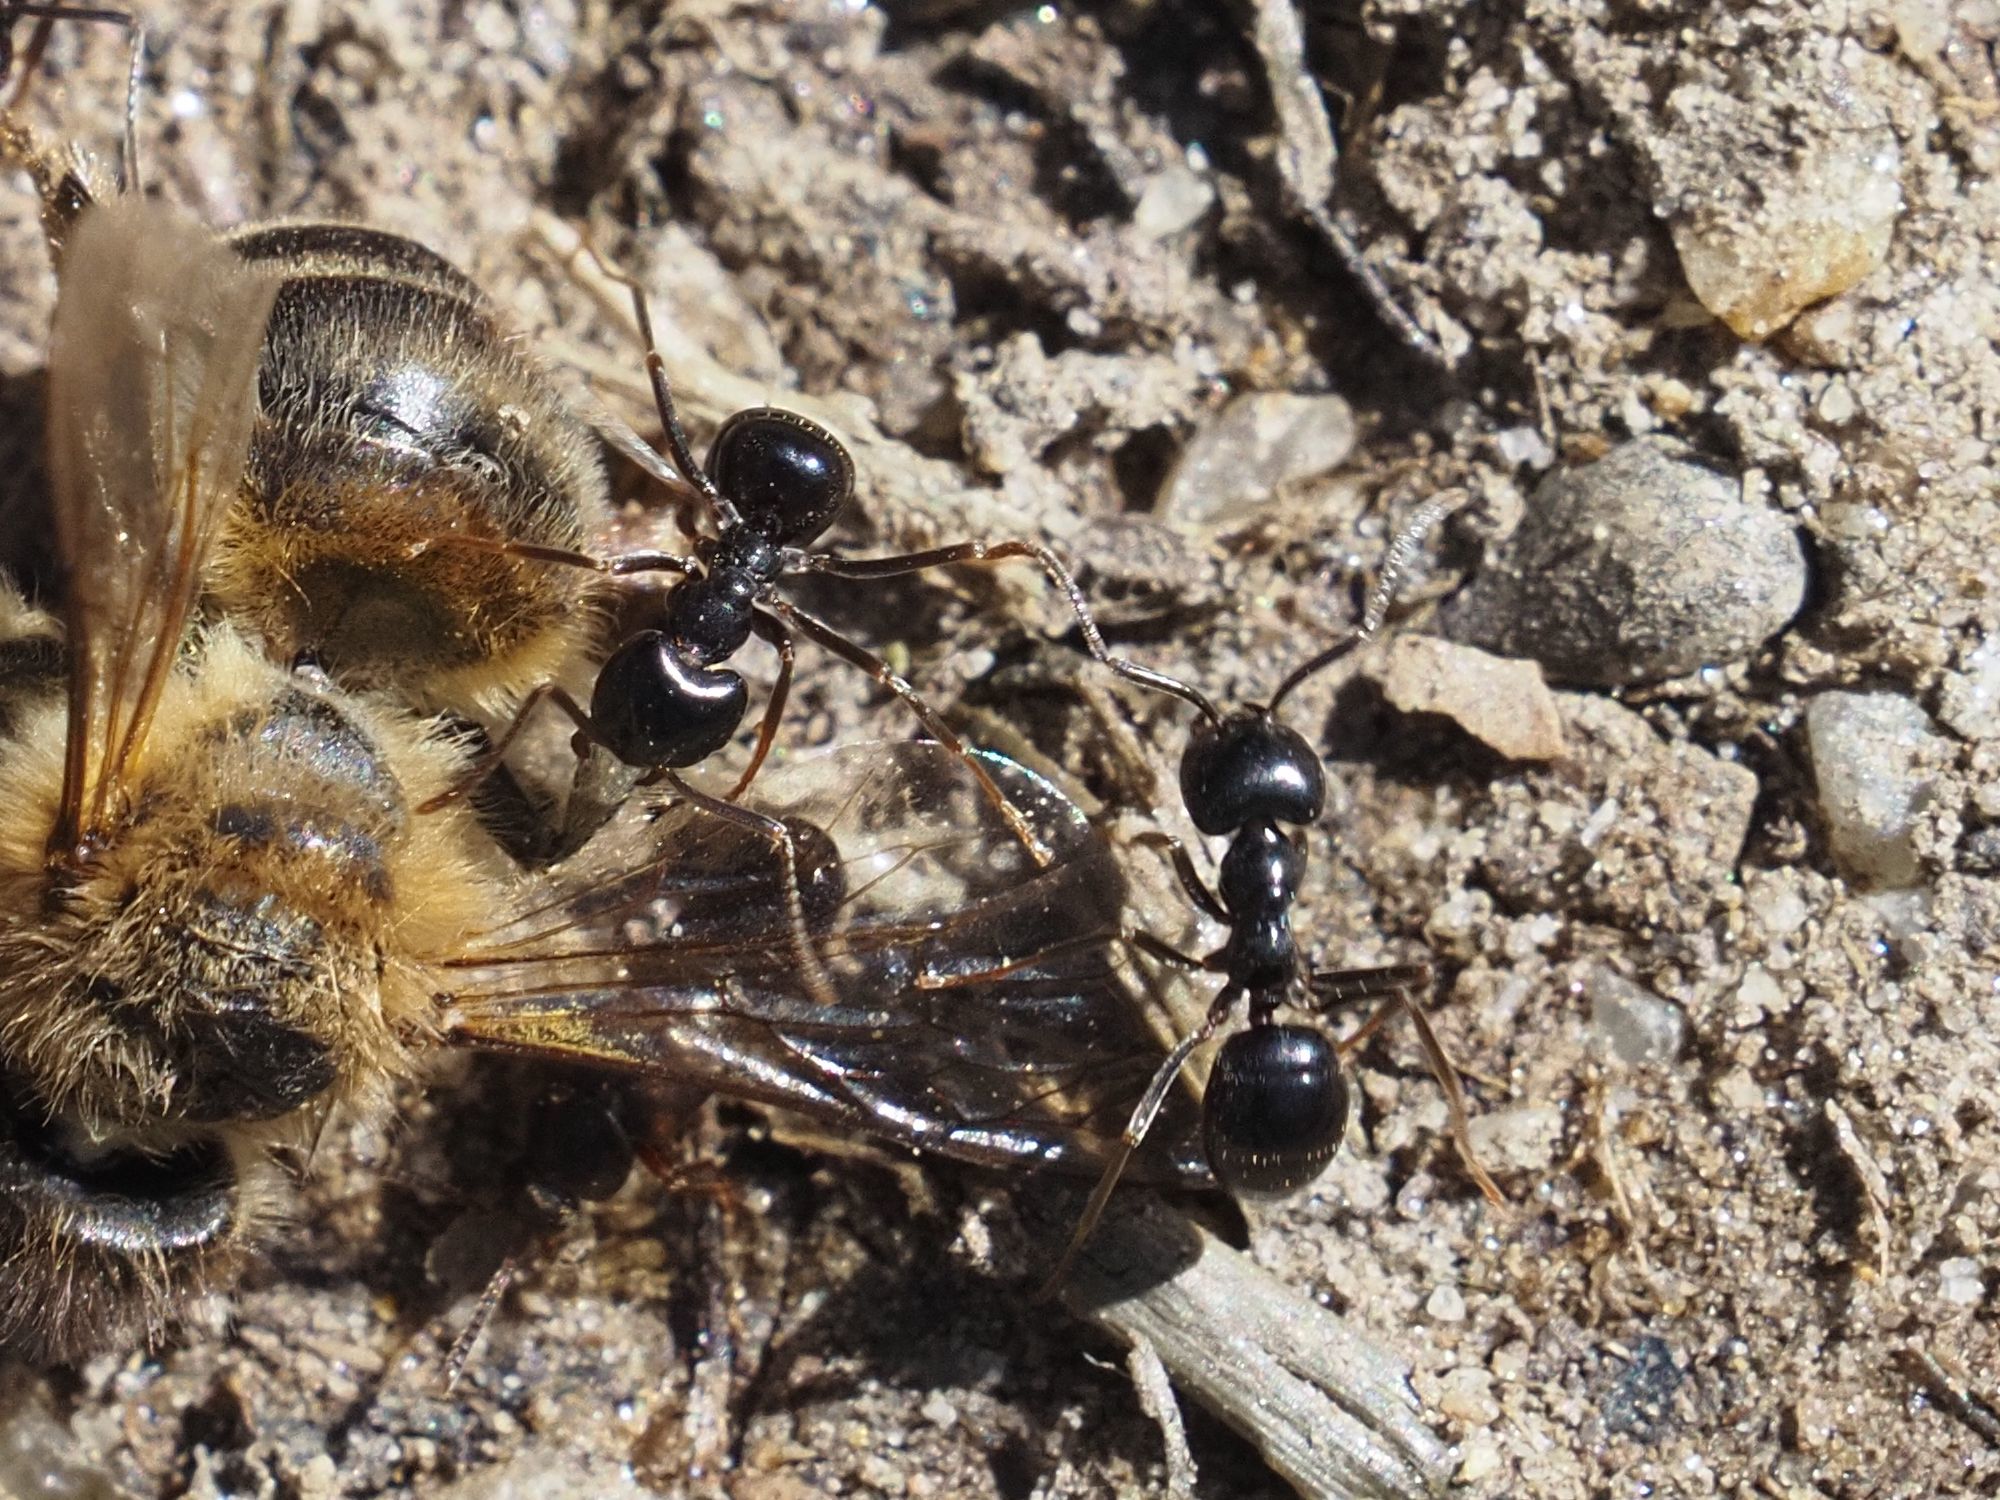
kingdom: Animalia
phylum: Arthropoda
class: Insecta
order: Hymenoptera
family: Formicidae
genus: Lasius
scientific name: Lasius fuliginosus
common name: Jet ant
